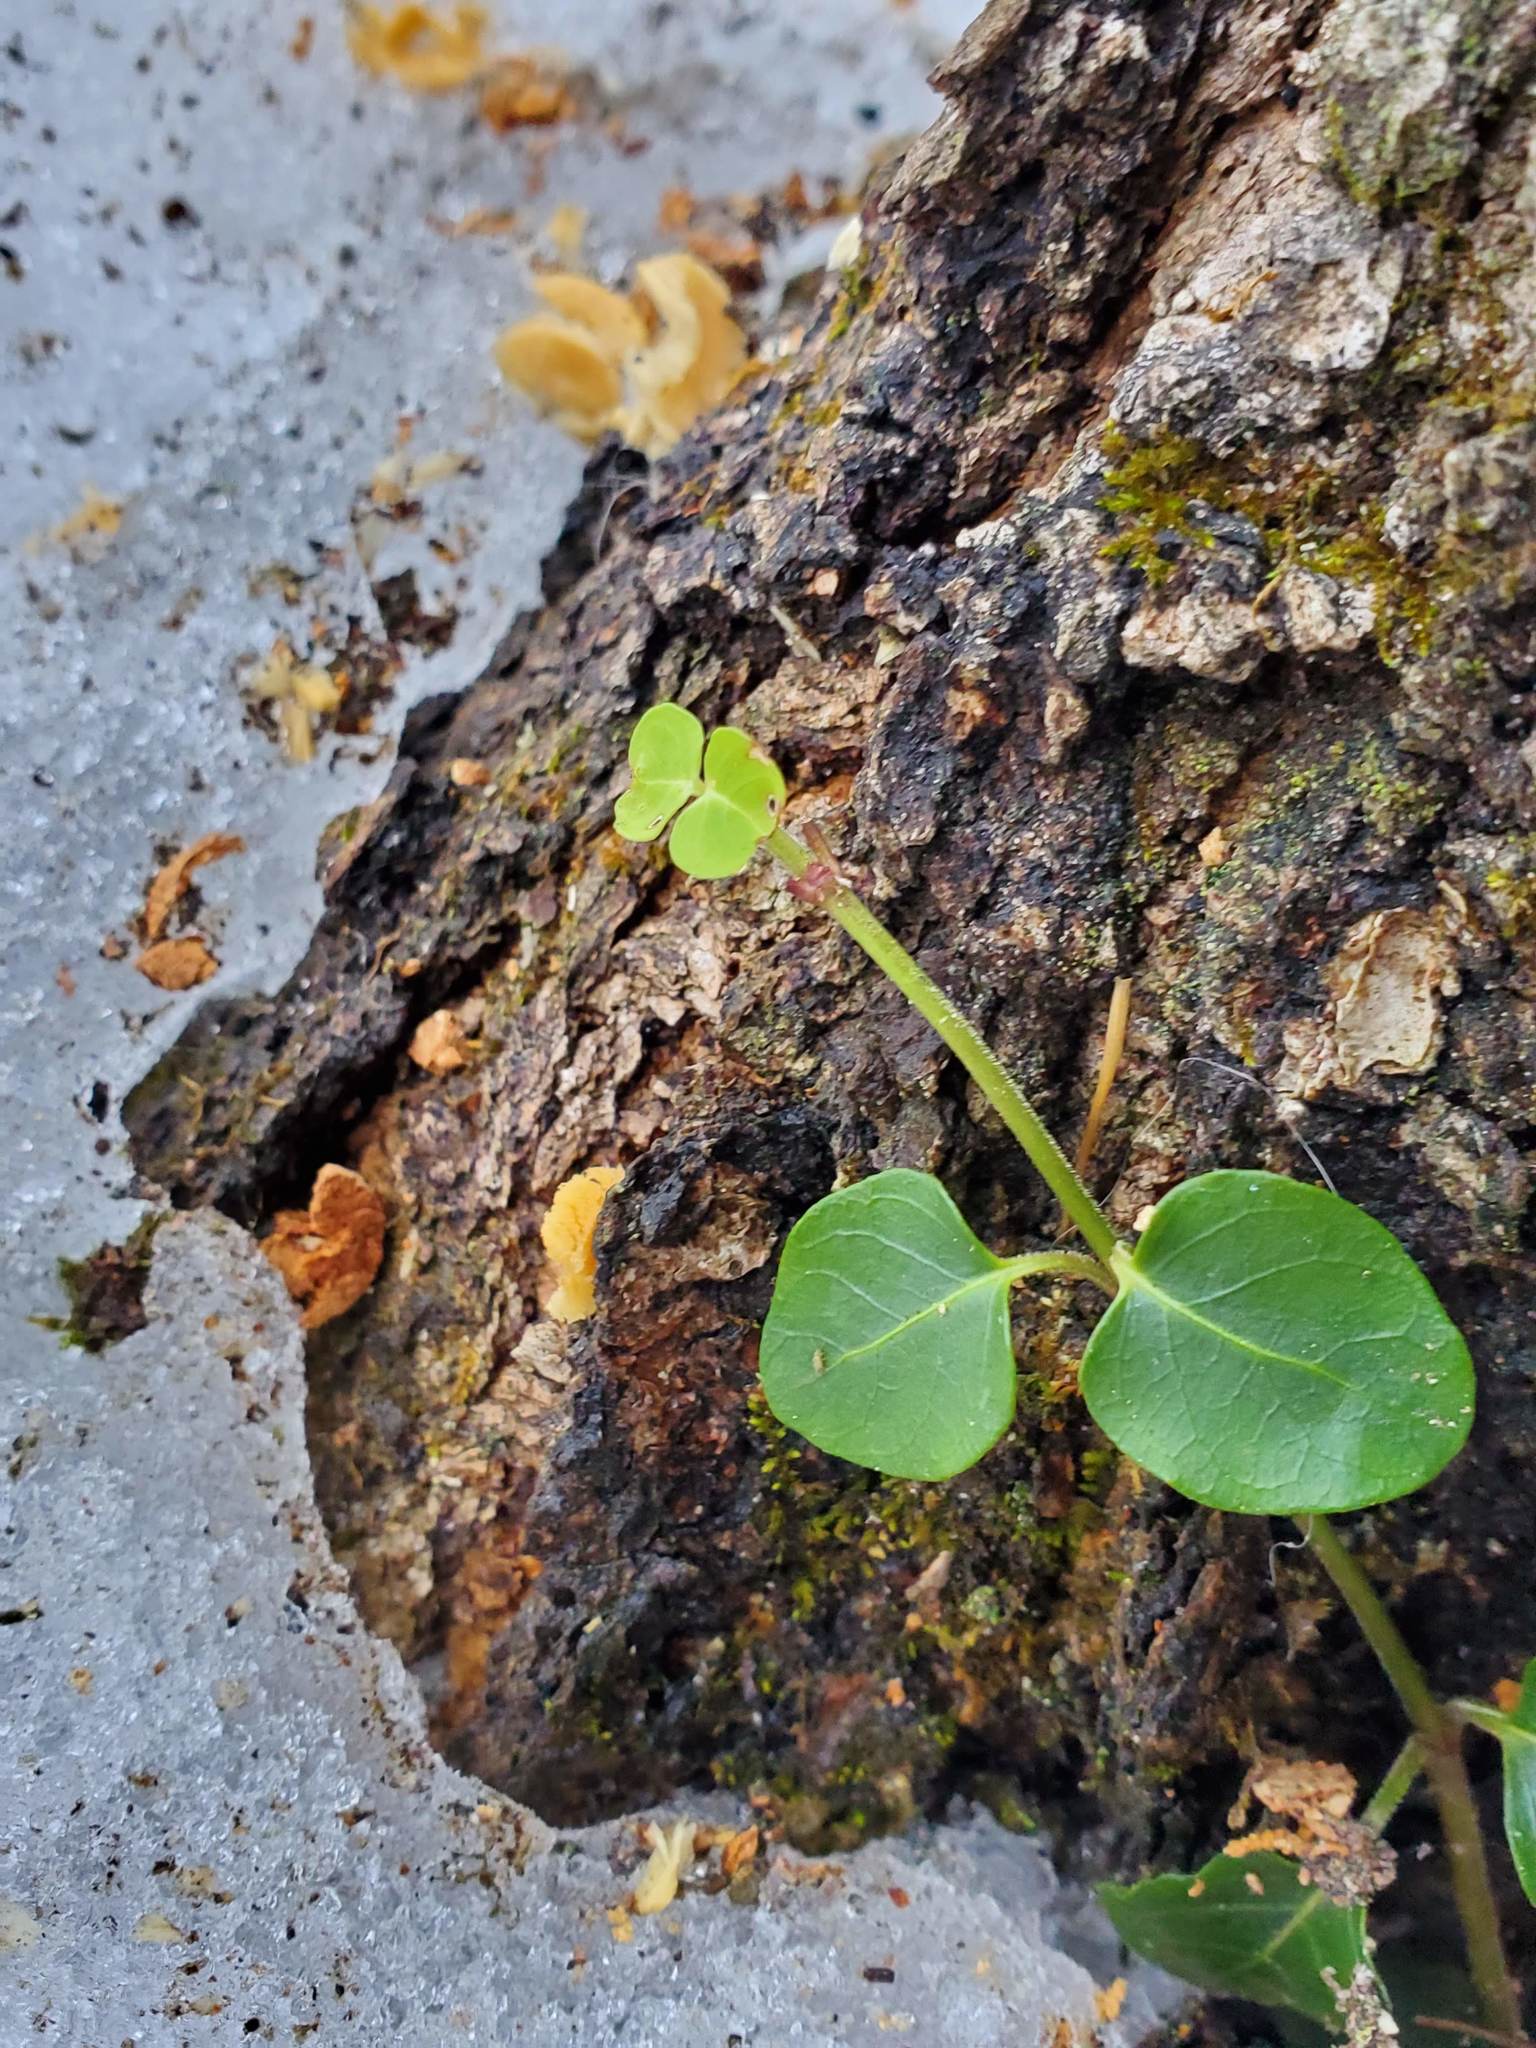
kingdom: Plantae
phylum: Tracheophyta
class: Magnoliopsida
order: Gentianales
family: Rubiaceae
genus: Mitchella
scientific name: Mitchella repens
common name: Partridge-berry
